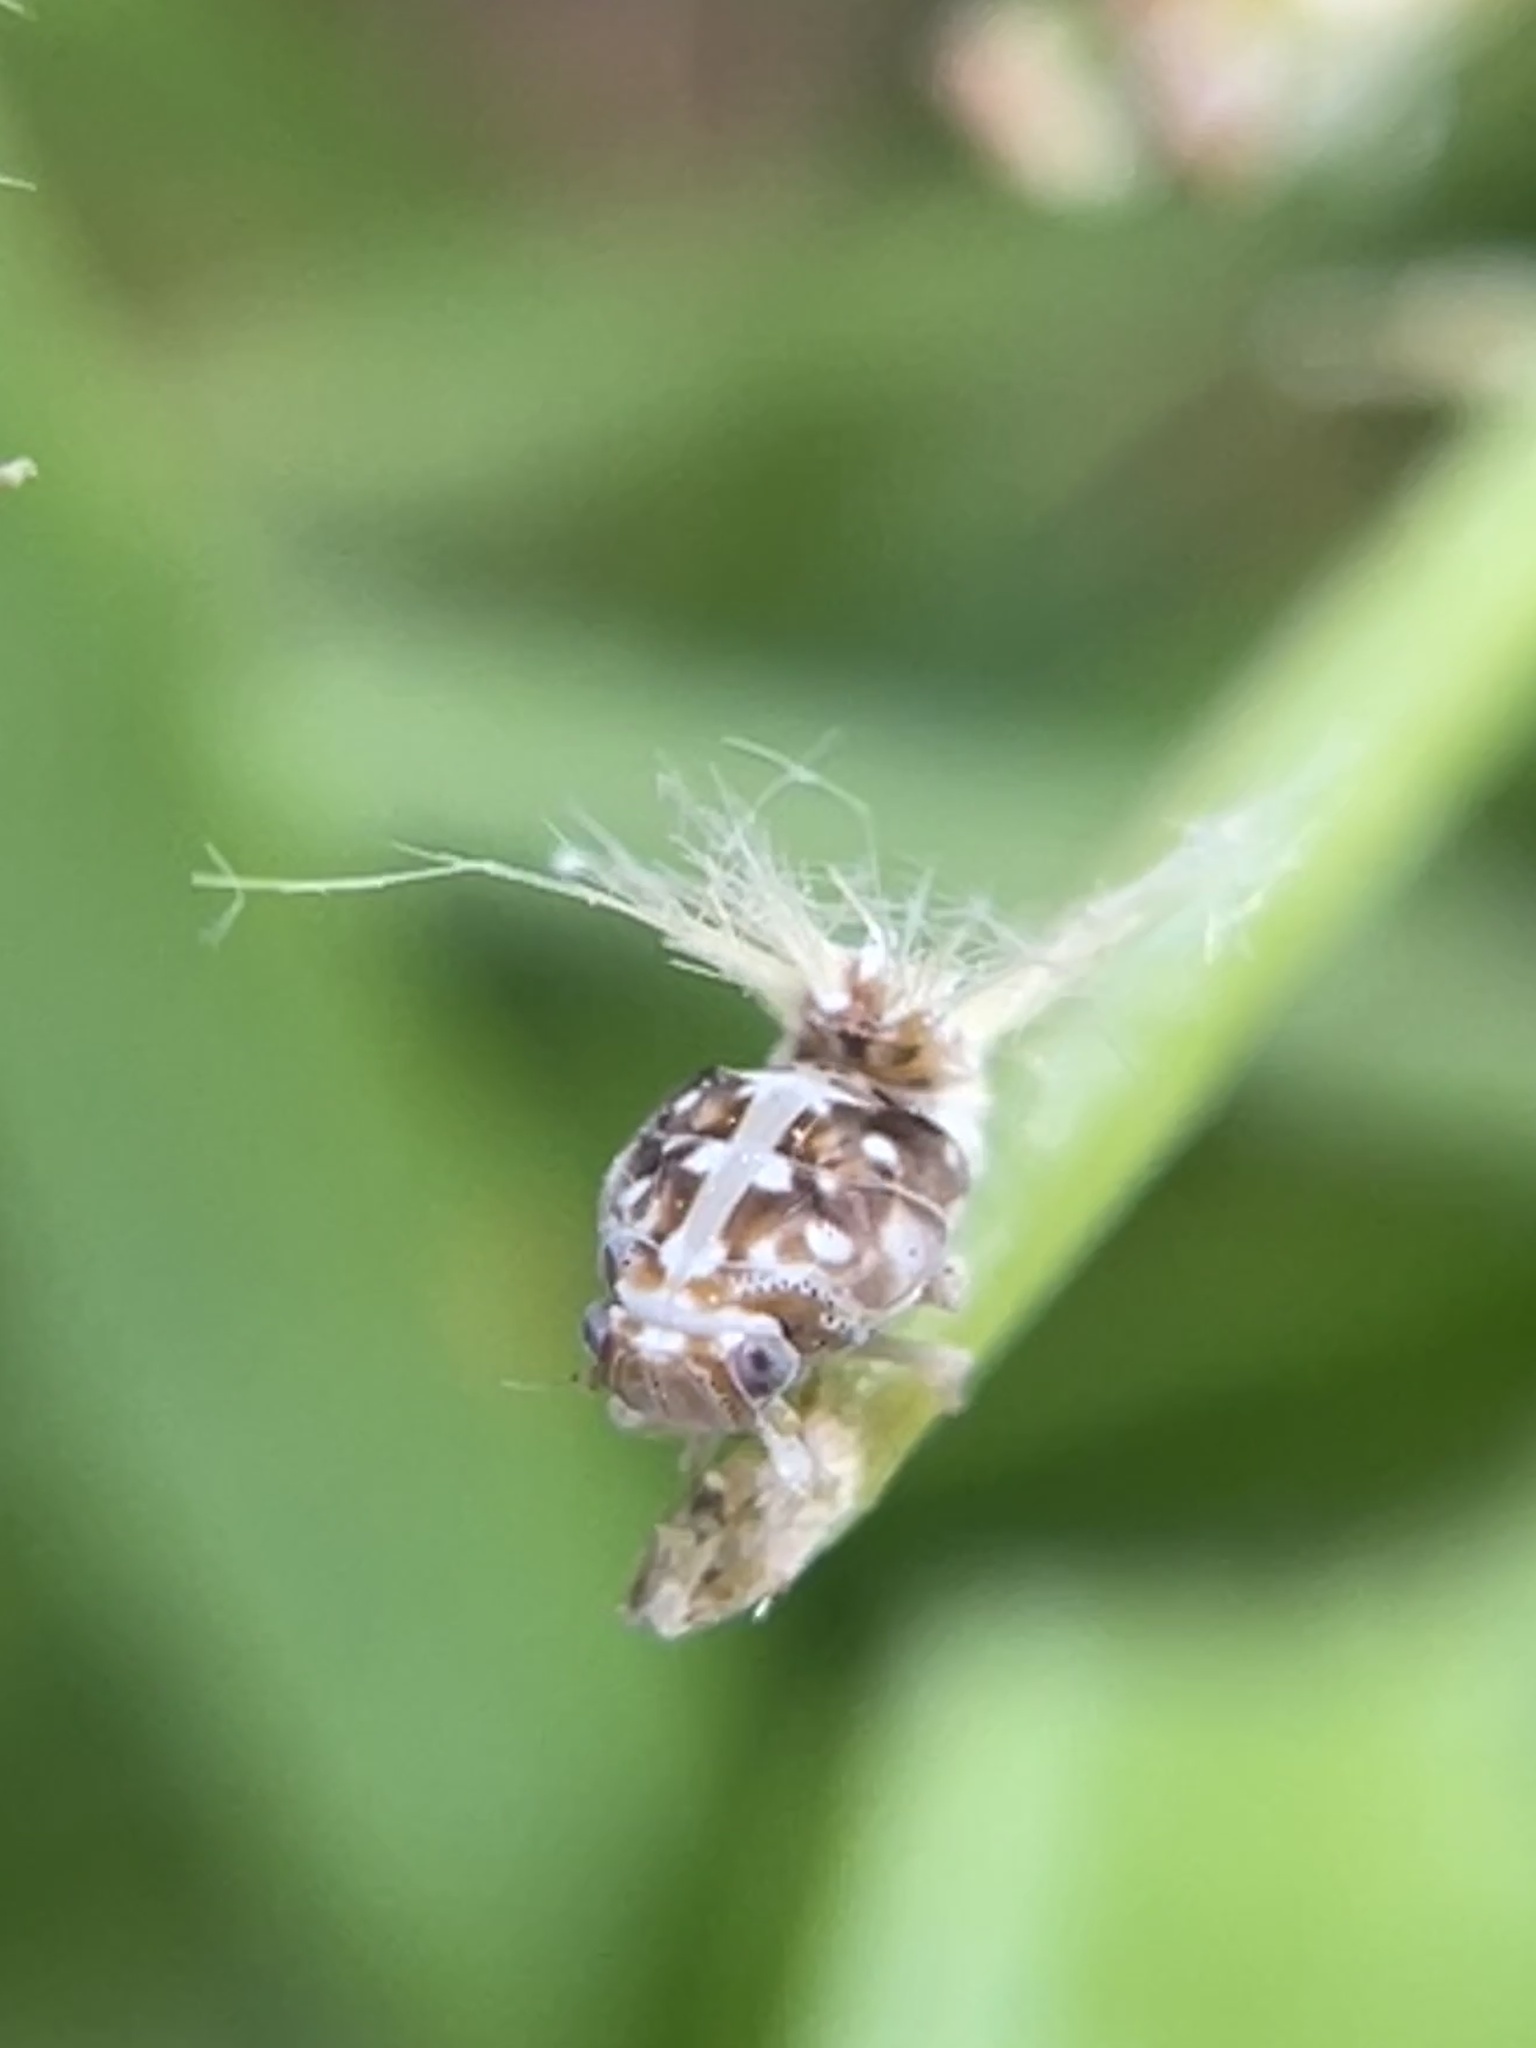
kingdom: Animalia
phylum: Arthropoda
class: Insecta
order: Hemiptera
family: Ricaniidae
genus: Scolypopa
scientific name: Scolypopa australis
